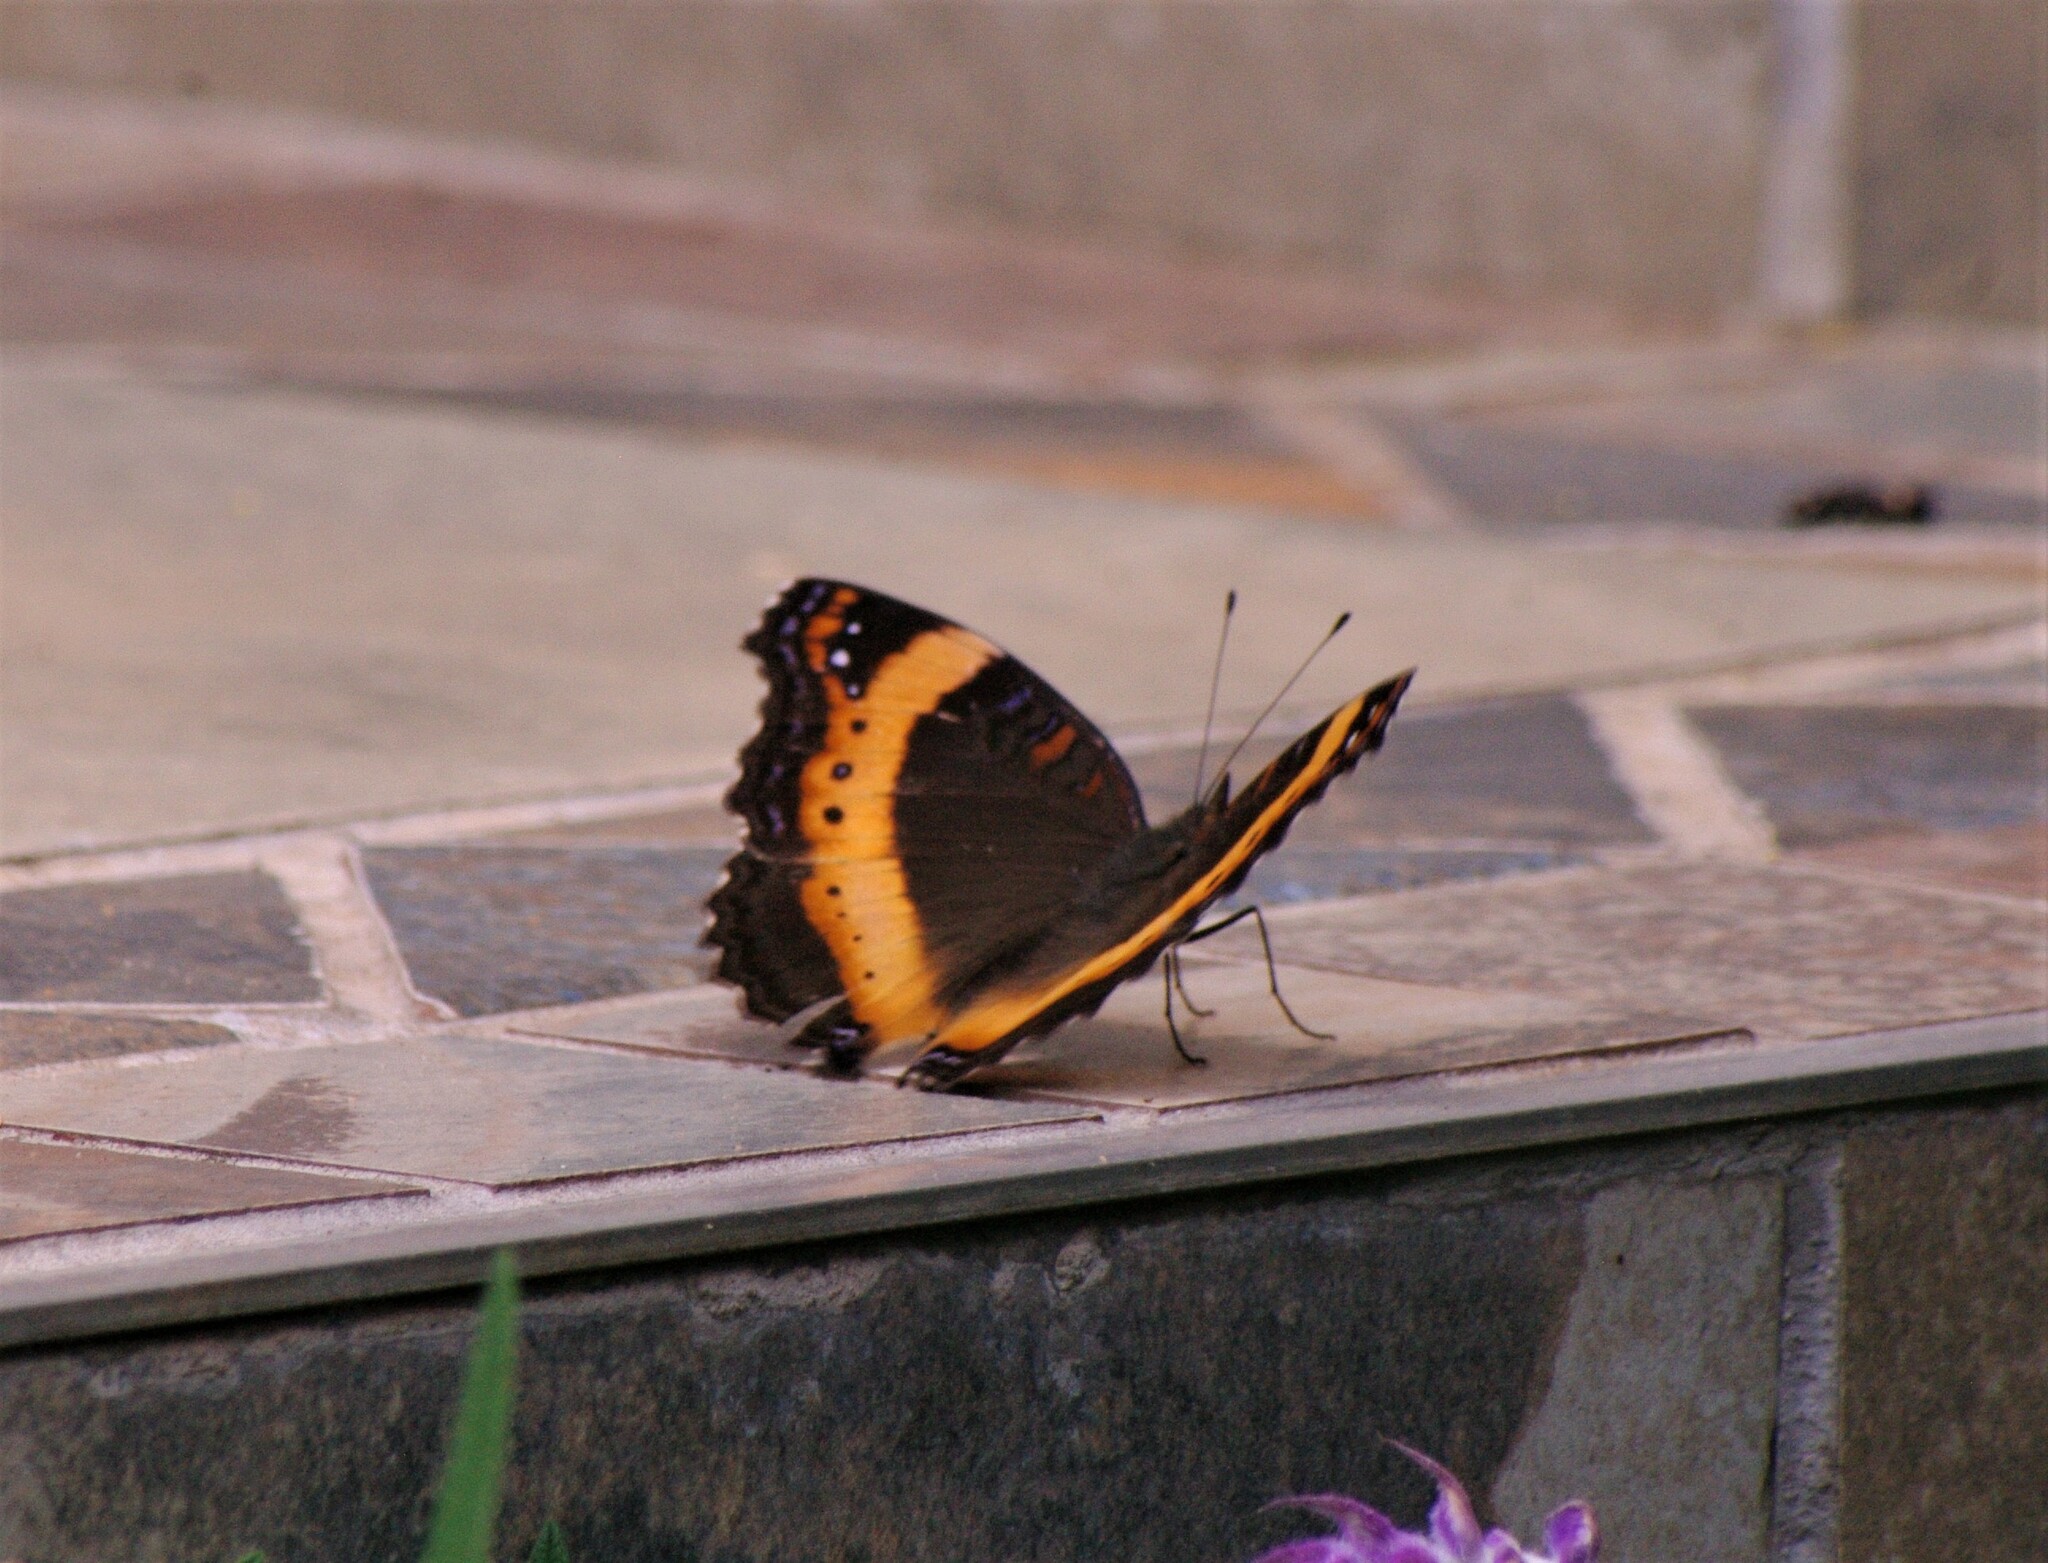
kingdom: Animalia
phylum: Arthropoda
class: Insecta
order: Lepidoptera
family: Nymphalidae
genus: Junonia
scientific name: Junonia archesia
